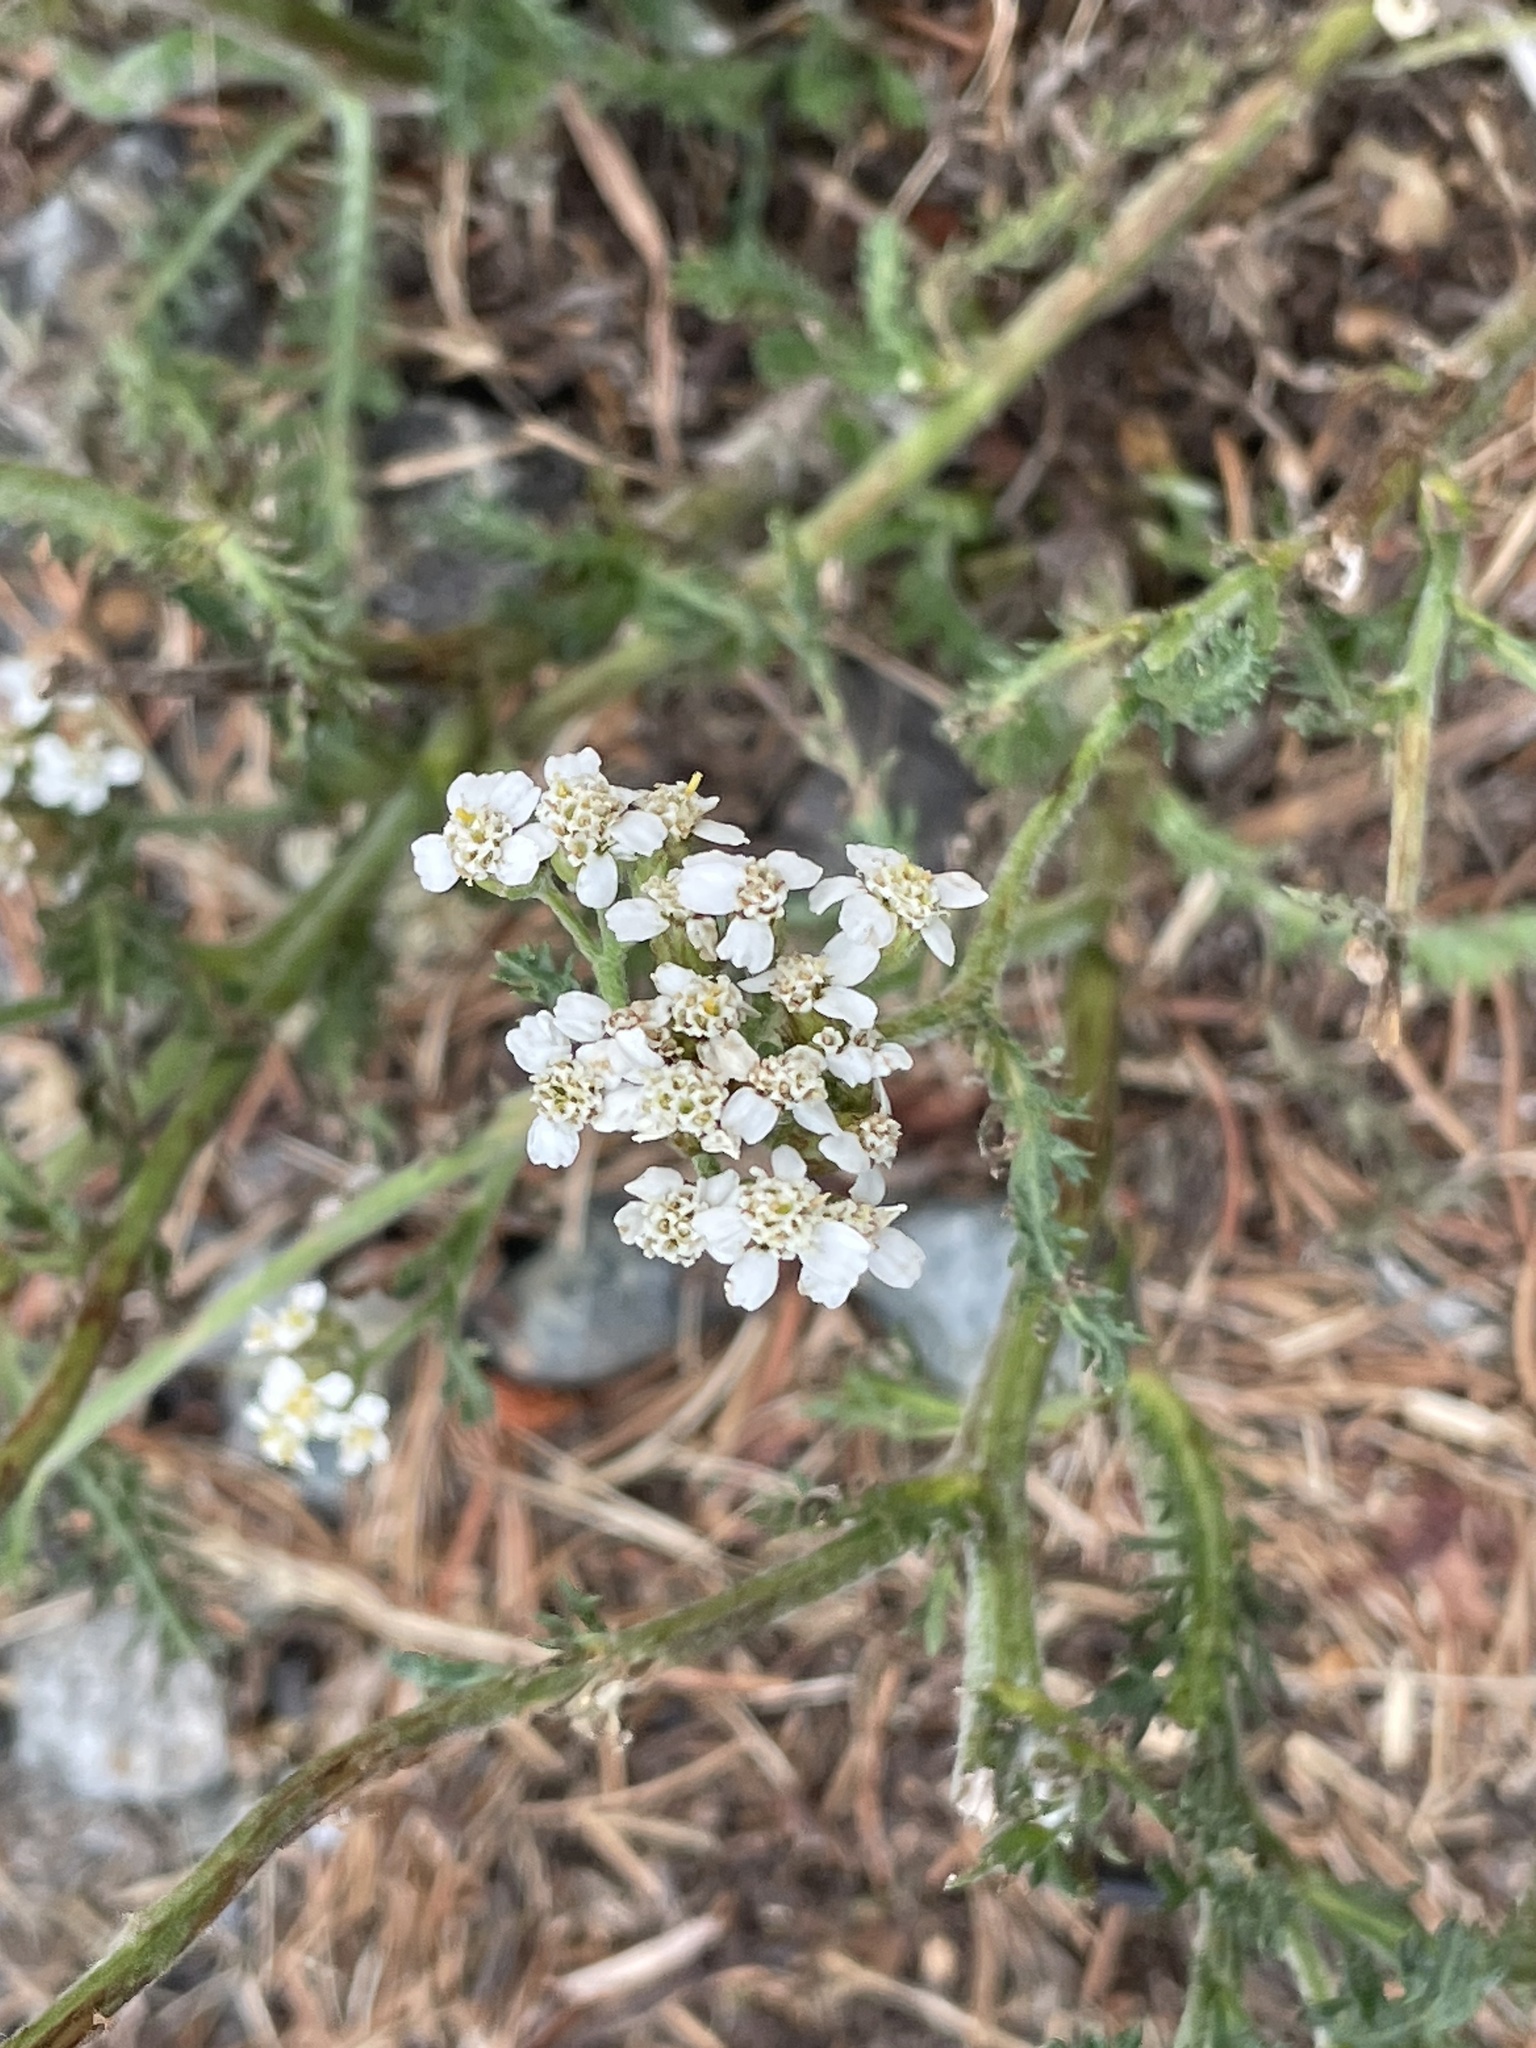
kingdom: Plantae
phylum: Tracheophyta
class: Magnoliopsida
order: Asterales
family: Asteraceae
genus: Achillea
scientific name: Achillea millefolium
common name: Yarrow
